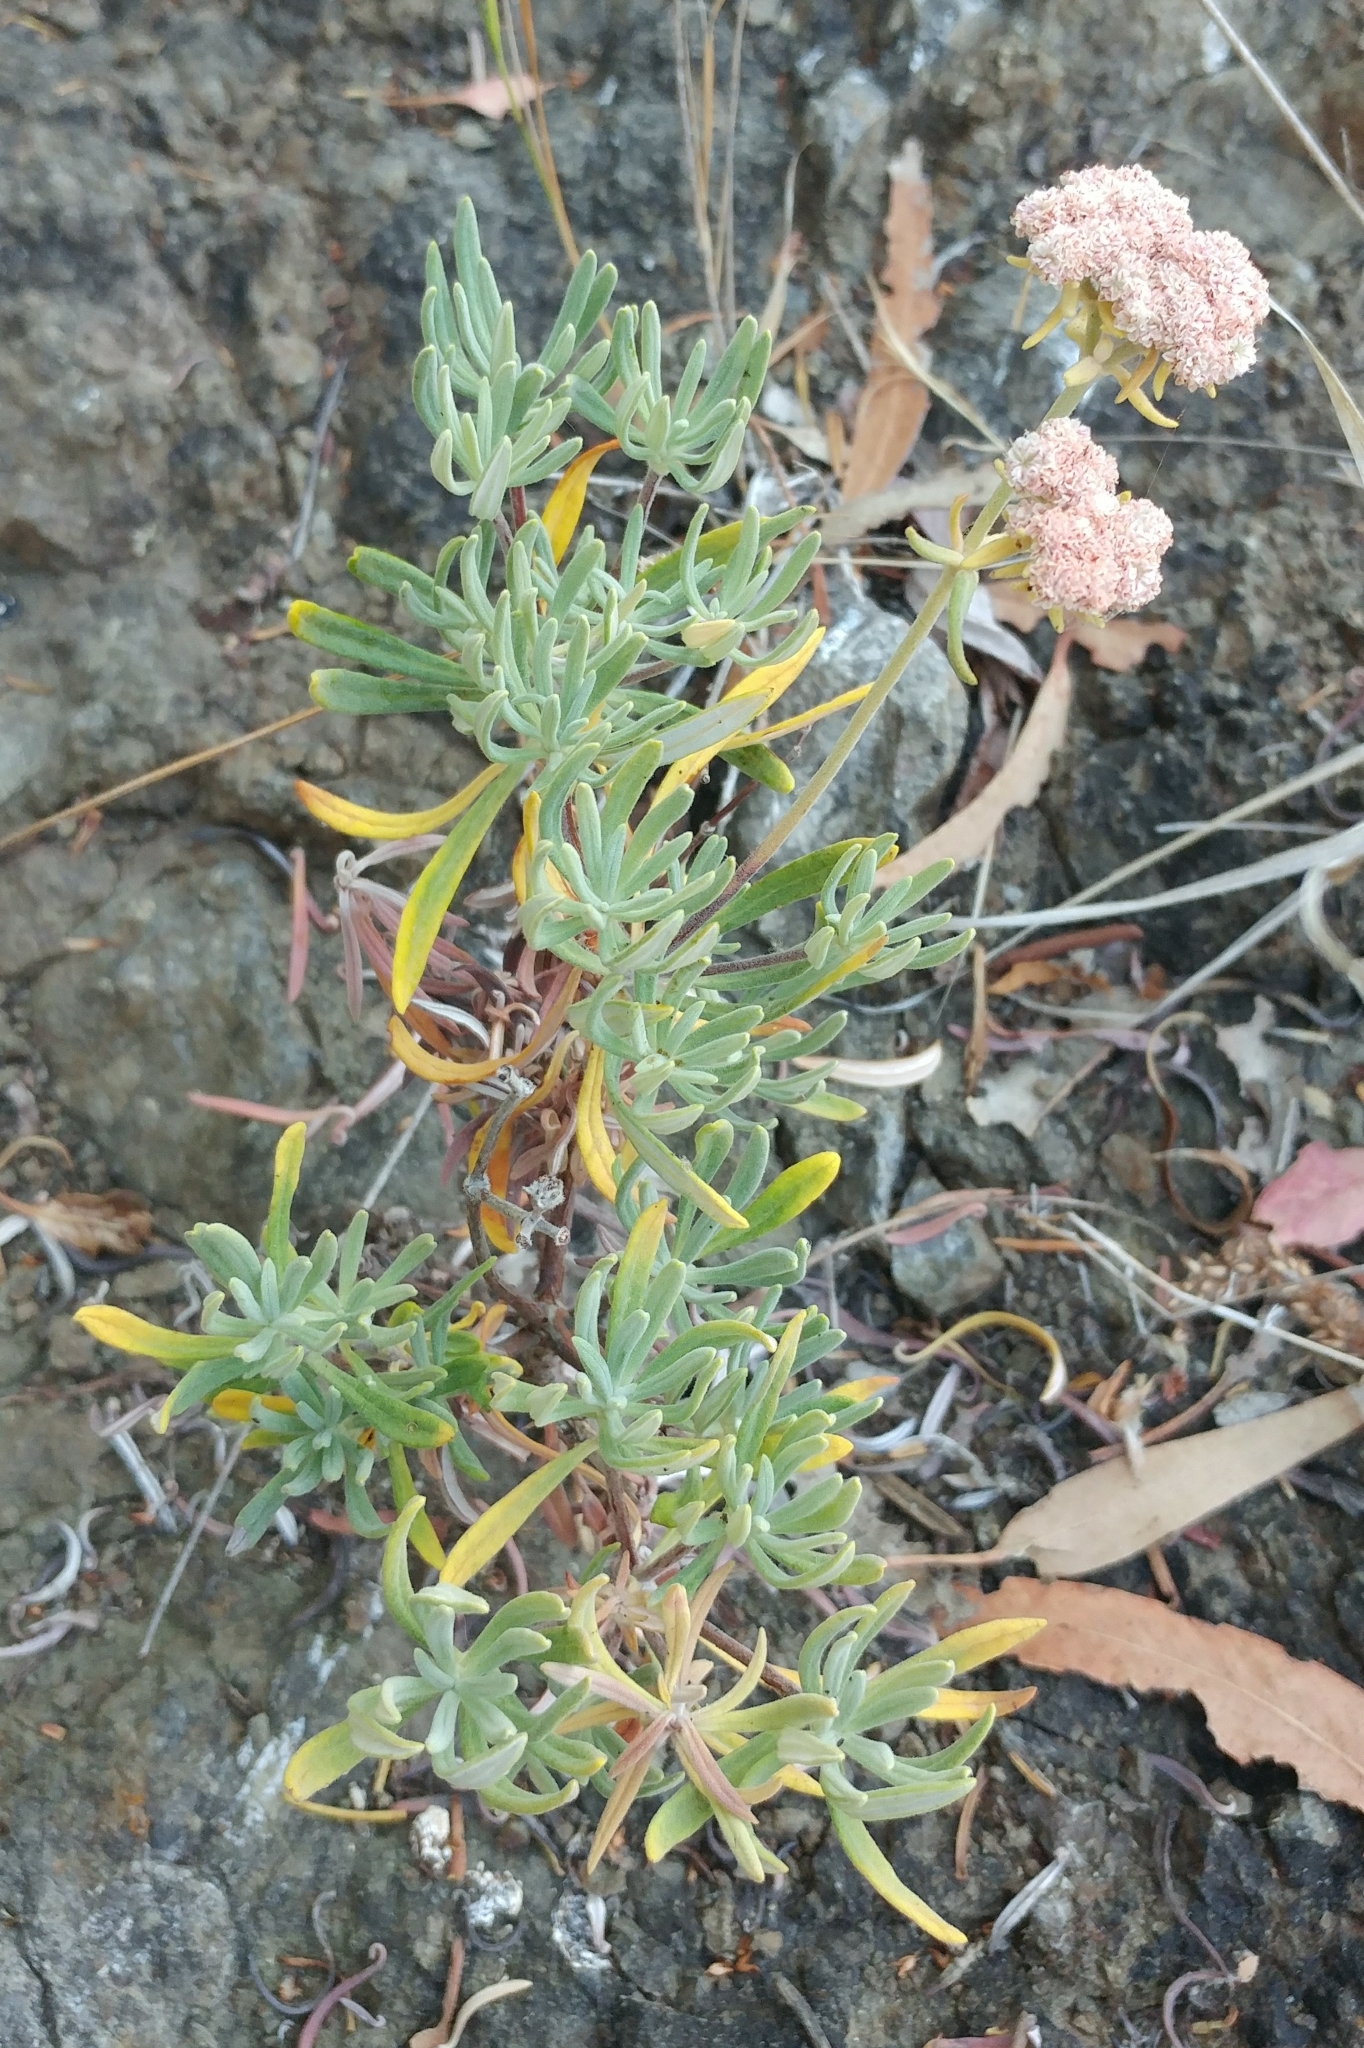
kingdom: Plantae
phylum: Tracheophyta
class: Magnoliopsida
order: Caryophyllales
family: Polygonaceae
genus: Eriogonum
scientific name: Eriogonum arborescens
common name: Island buckwheat
